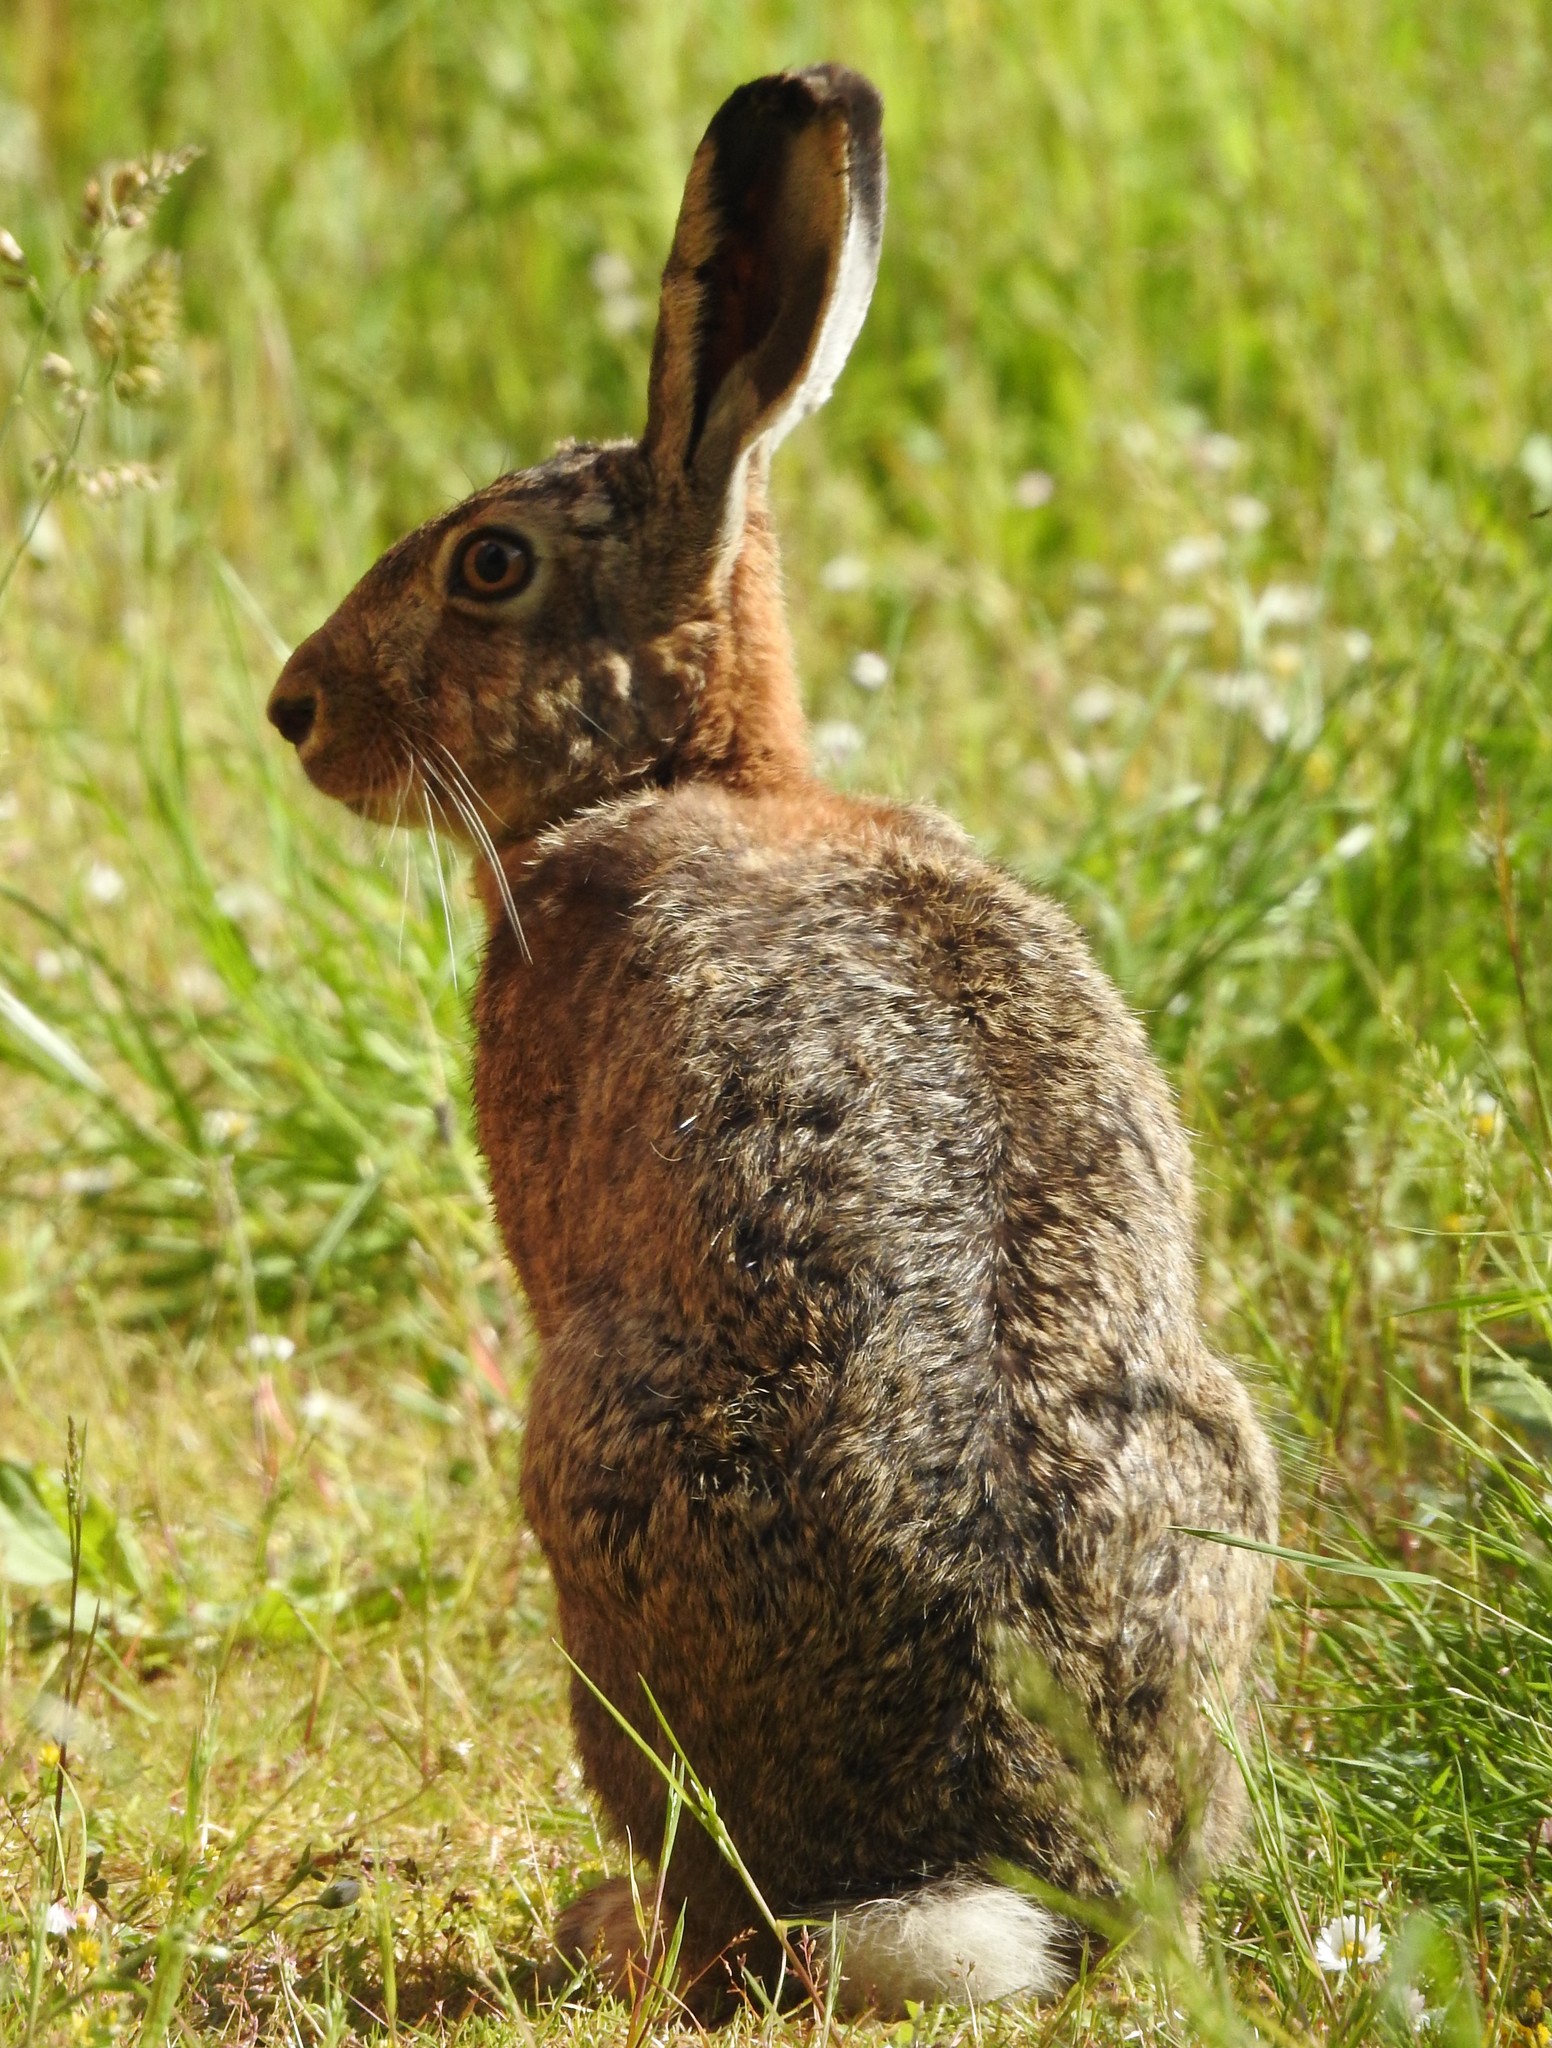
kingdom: Animalia
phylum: Chordata
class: Mammalia
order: Lagomorpha
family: Leporidae
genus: Lepus
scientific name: Lepus europaeus
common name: European hare
